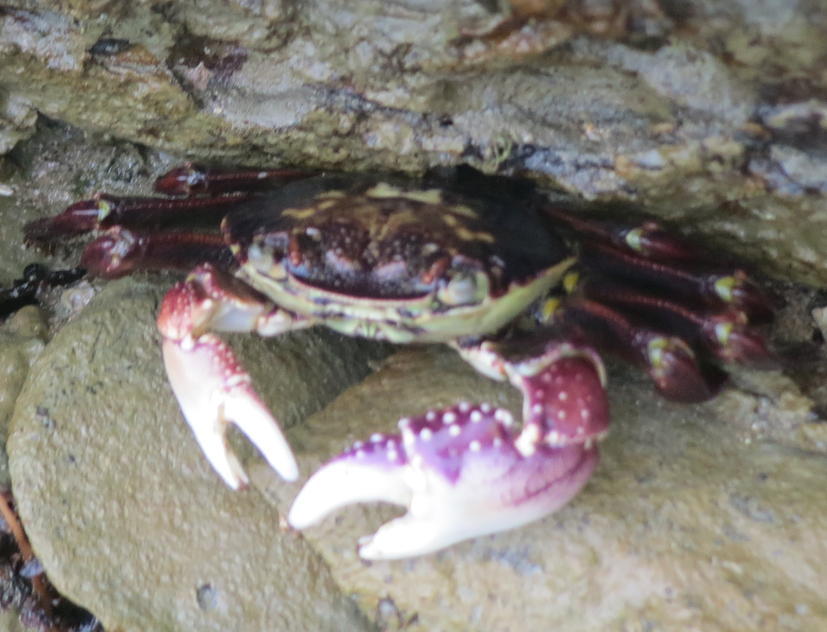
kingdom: Animalia
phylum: Arthropoda
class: Malacostraca
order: Decapoda
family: Grapsidae
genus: Leptograpsus
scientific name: Leptograpsus variegatus
